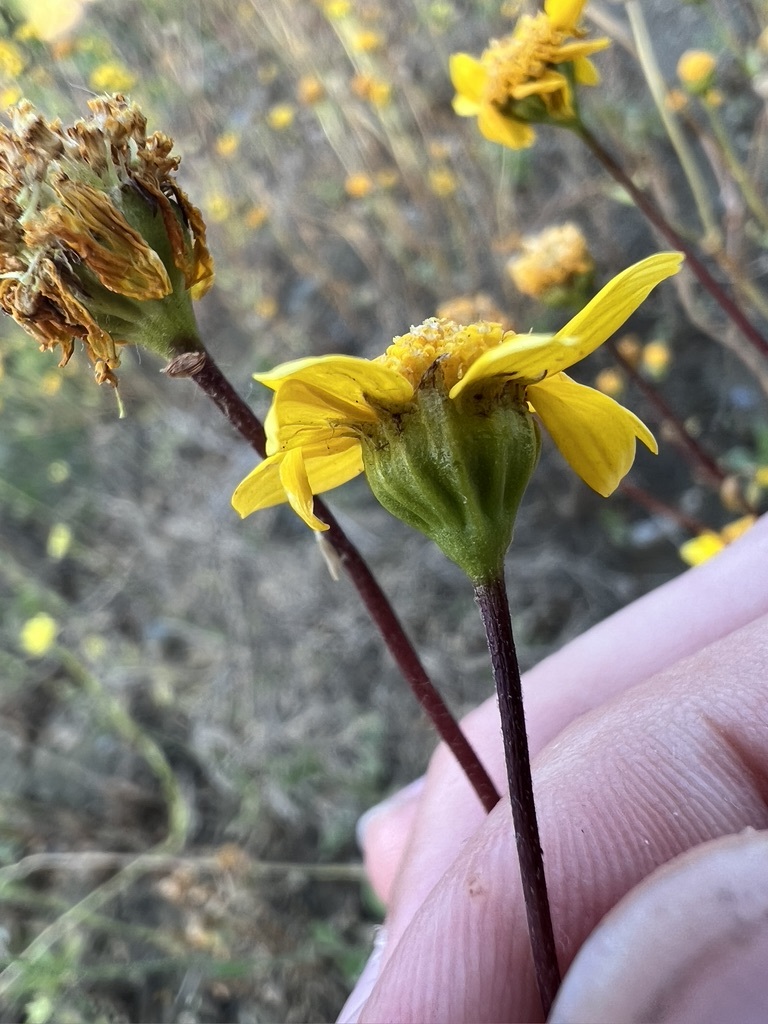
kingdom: Plantae
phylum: Tracheophyta
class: Magnoliopsida
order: Asterales
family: Asteraceae
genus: Lasthenia
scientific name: Lasthenia glabrata
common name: Yellow-ray lasthenia
